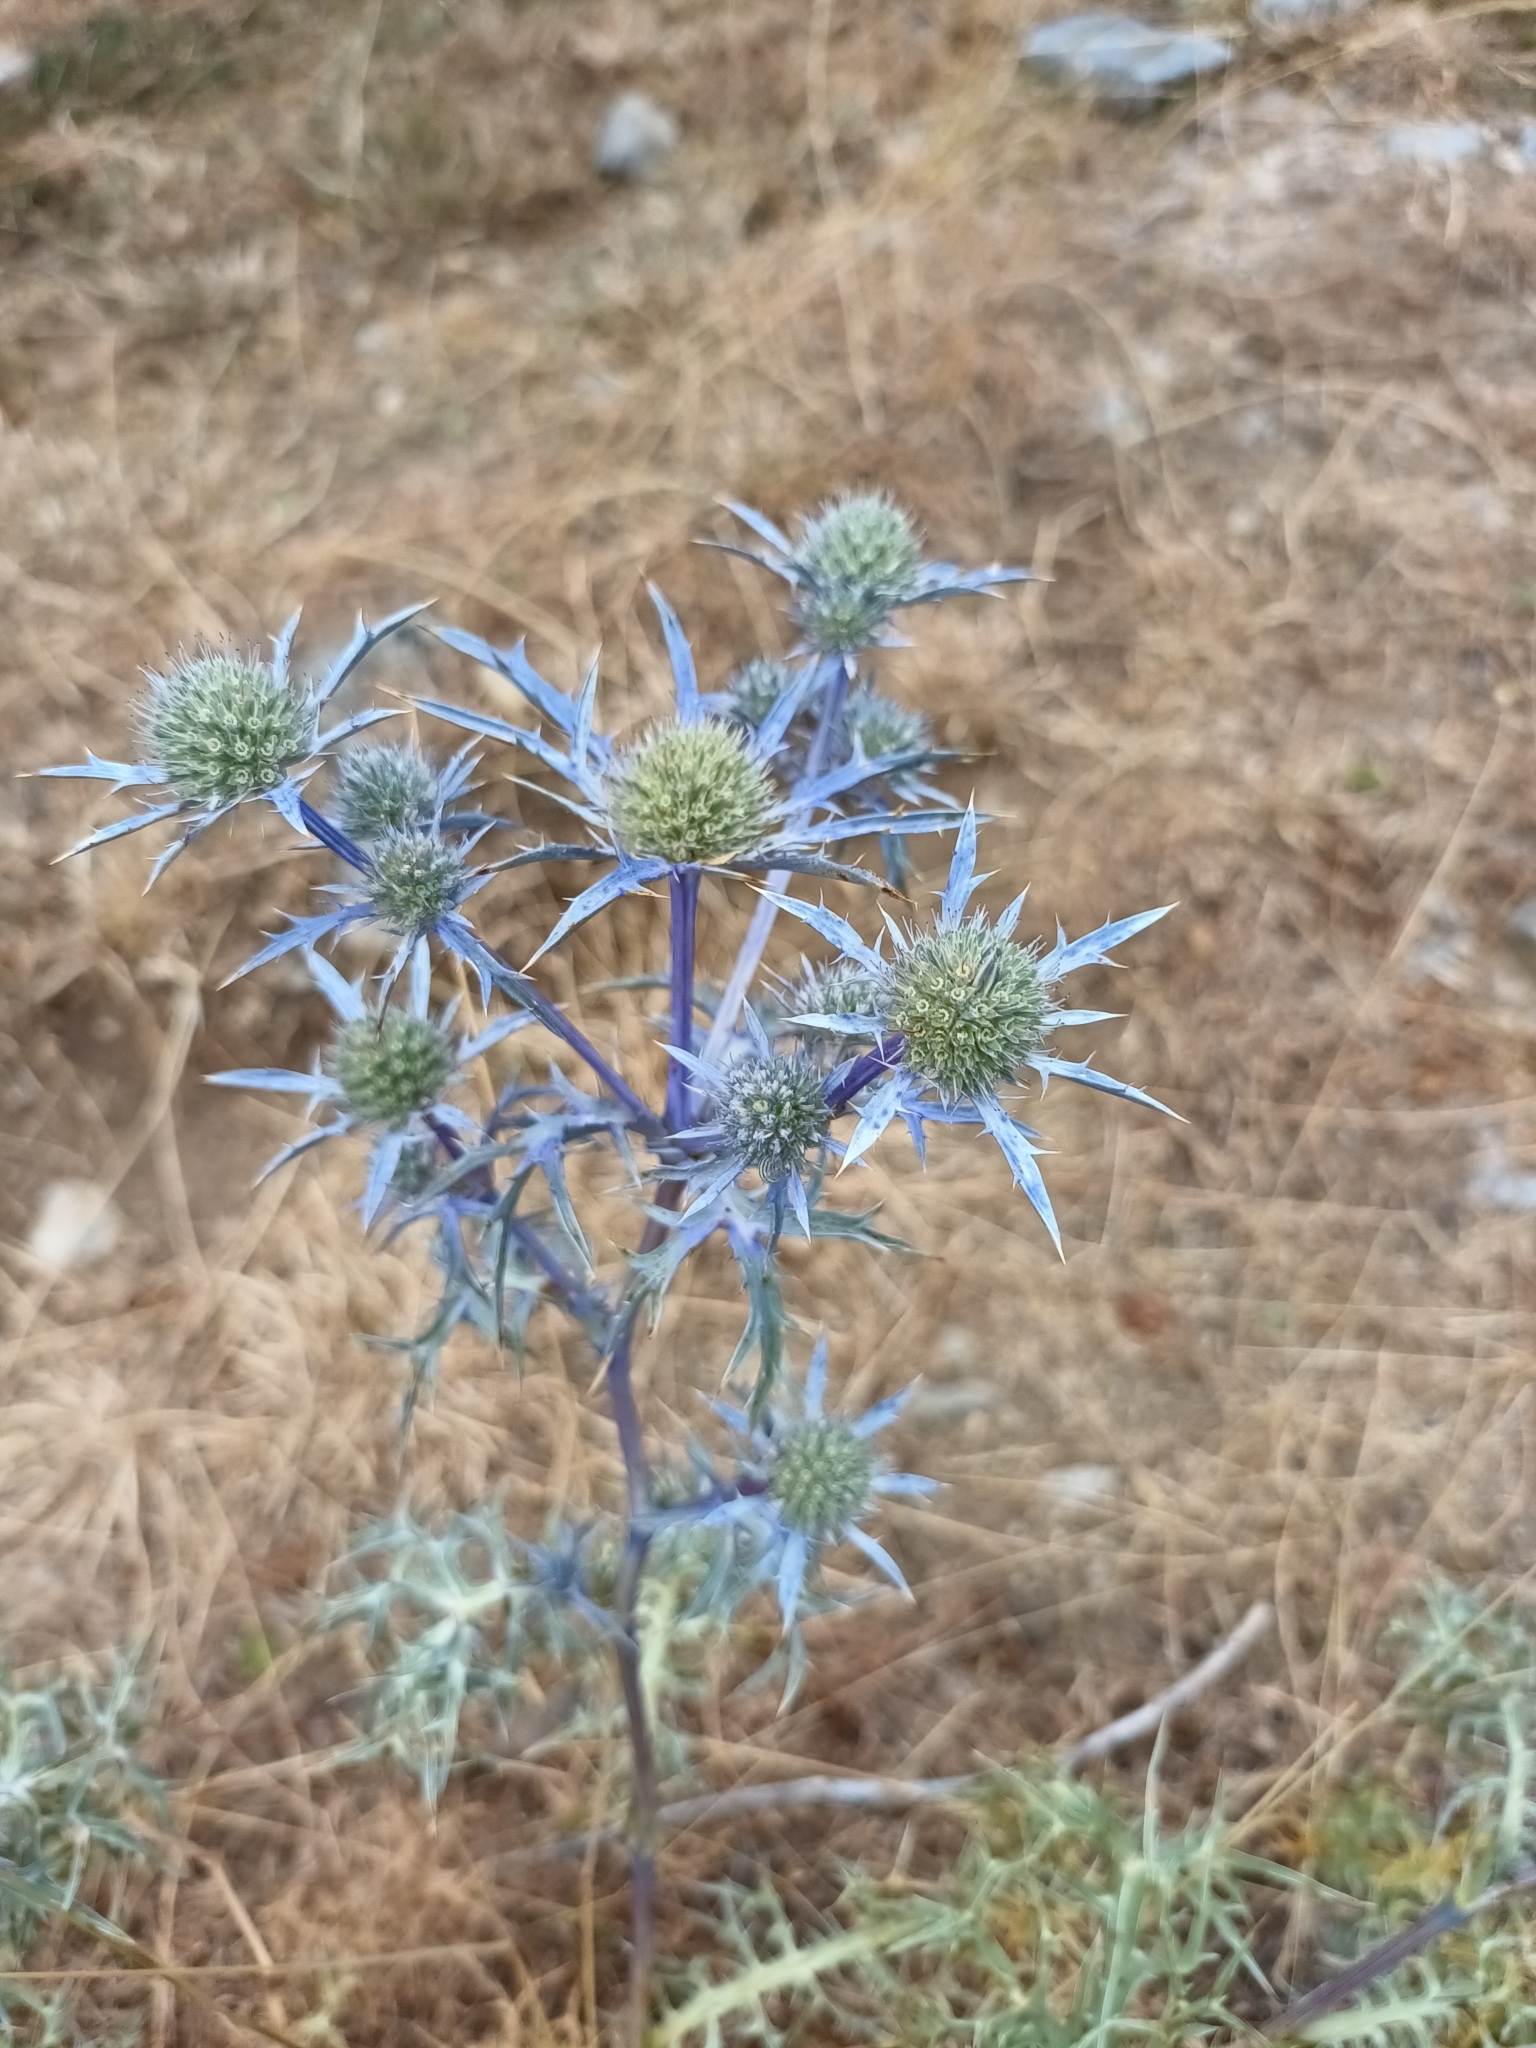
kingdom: Plantae
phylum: Tracheophyta
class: Magnoliopsida
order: Apiales
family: Apiaceae
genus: Eryngium
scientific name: Eryngium amethystinum
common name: Amethyst eryngo
